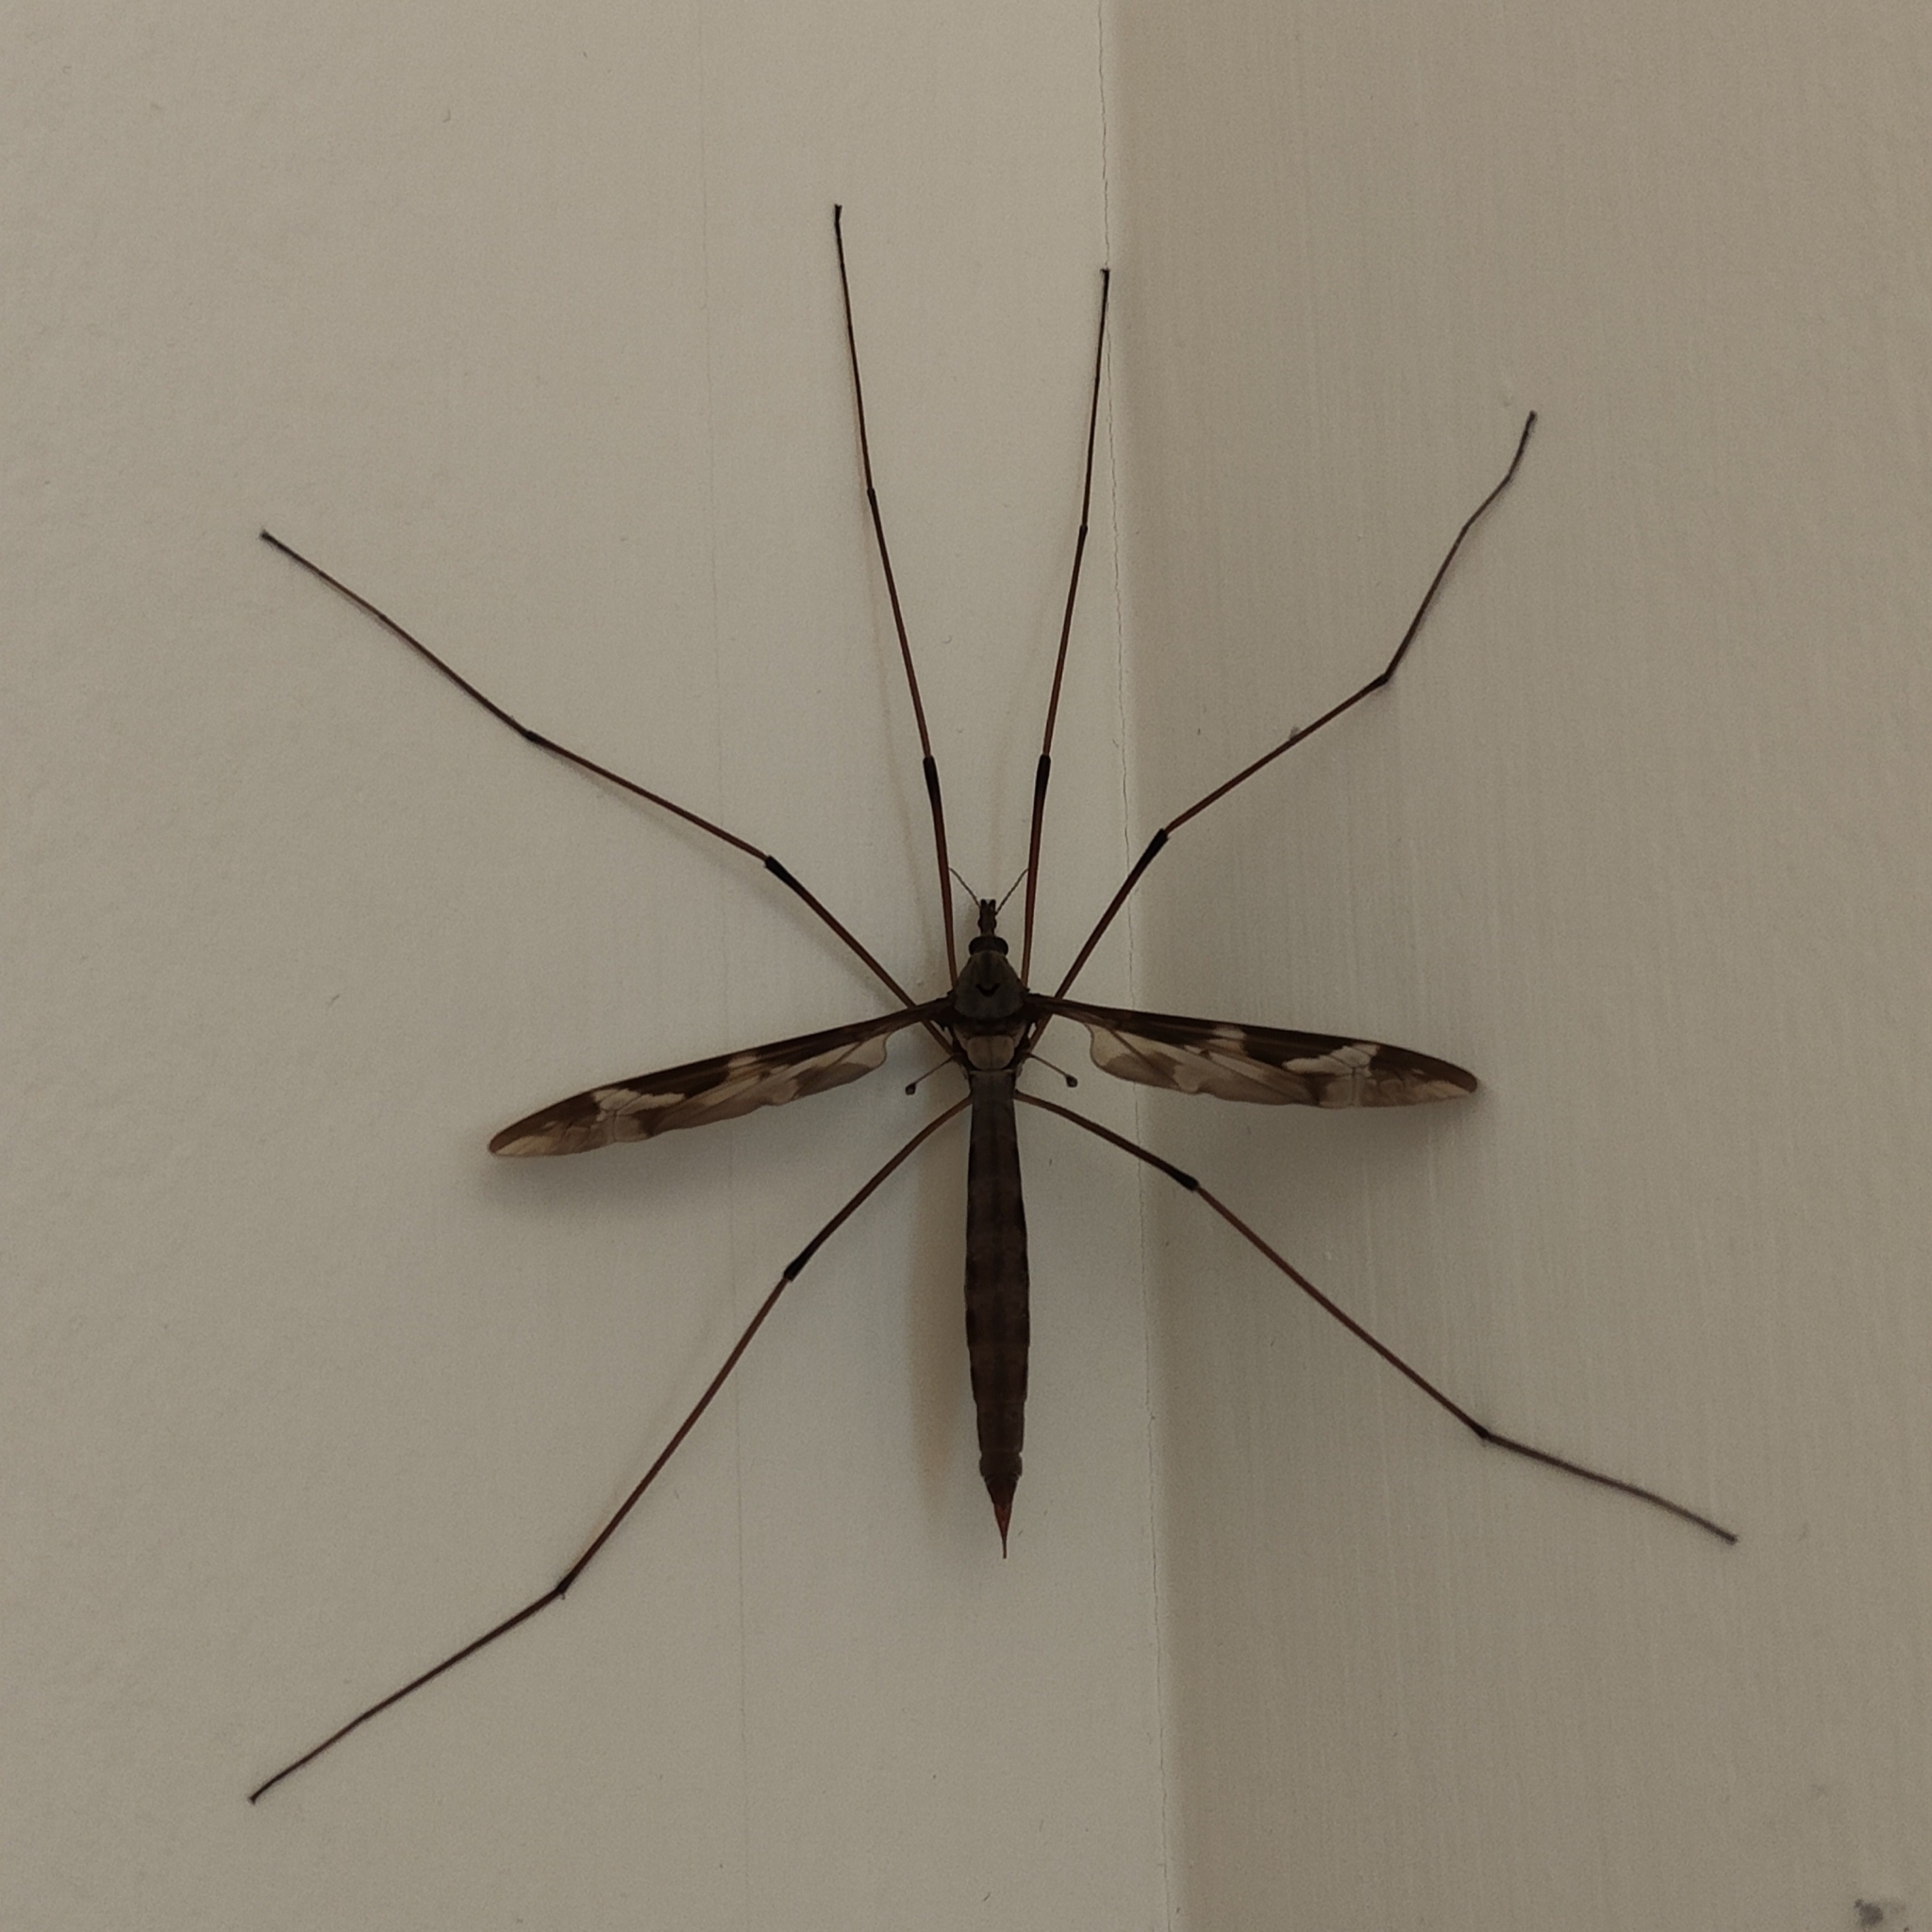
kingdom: Animalia
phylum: Arthropoda
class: Insecta
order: Diptera
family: Tipulidae
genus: Tipula
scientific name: Tipula maxima
